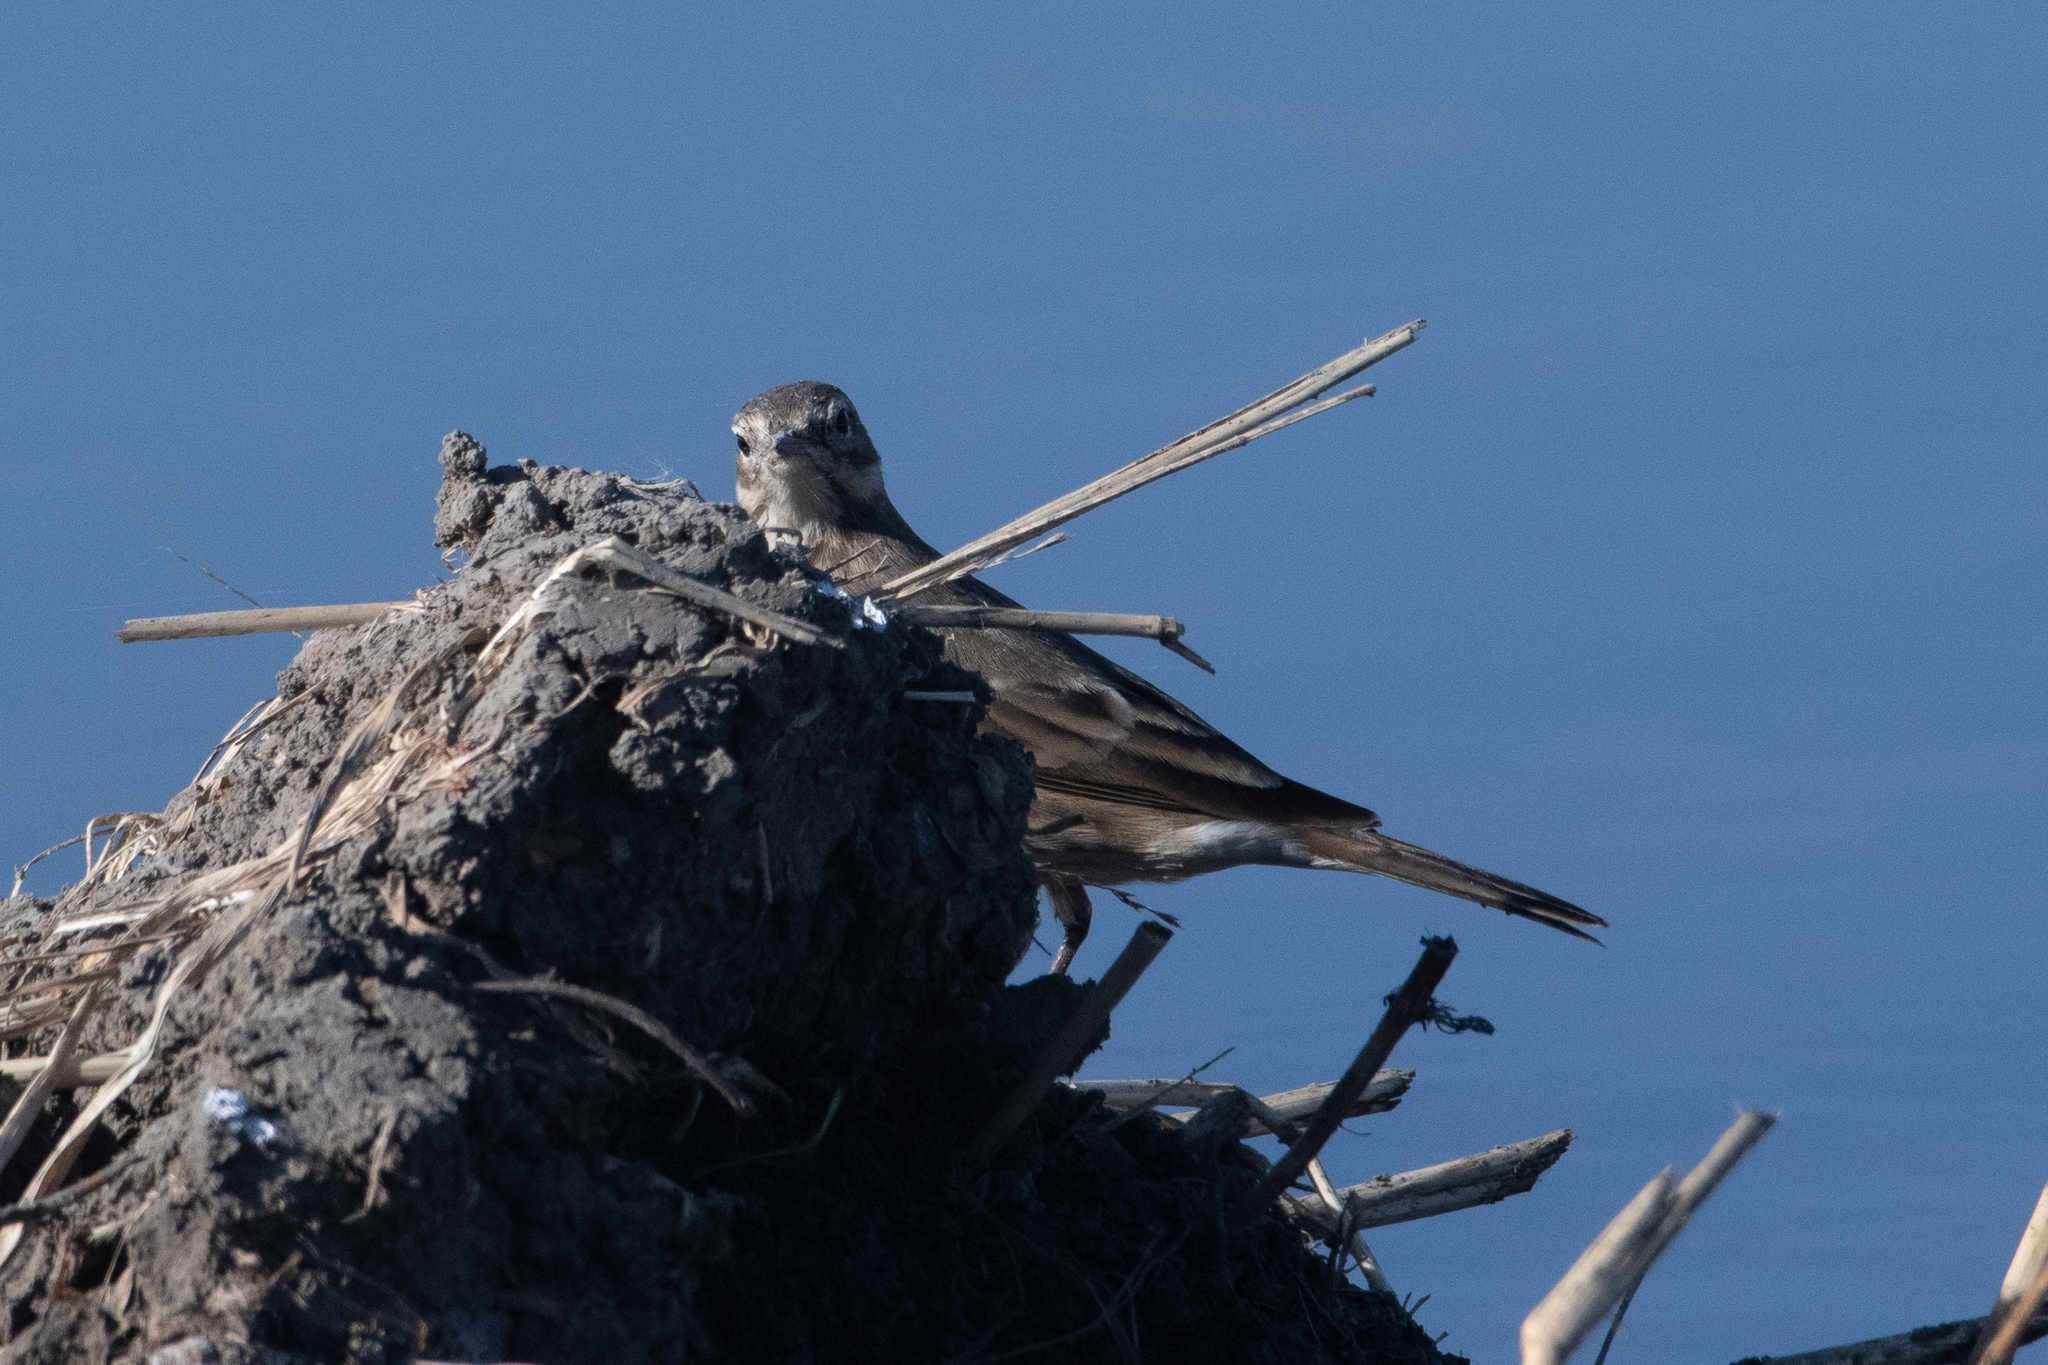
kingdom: Animalia
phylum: Chordata
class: Aves
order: Passeriformes
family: Motacillidae
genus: Anthus
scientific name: Anthus rubescens
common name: Buff-bellied pipit
